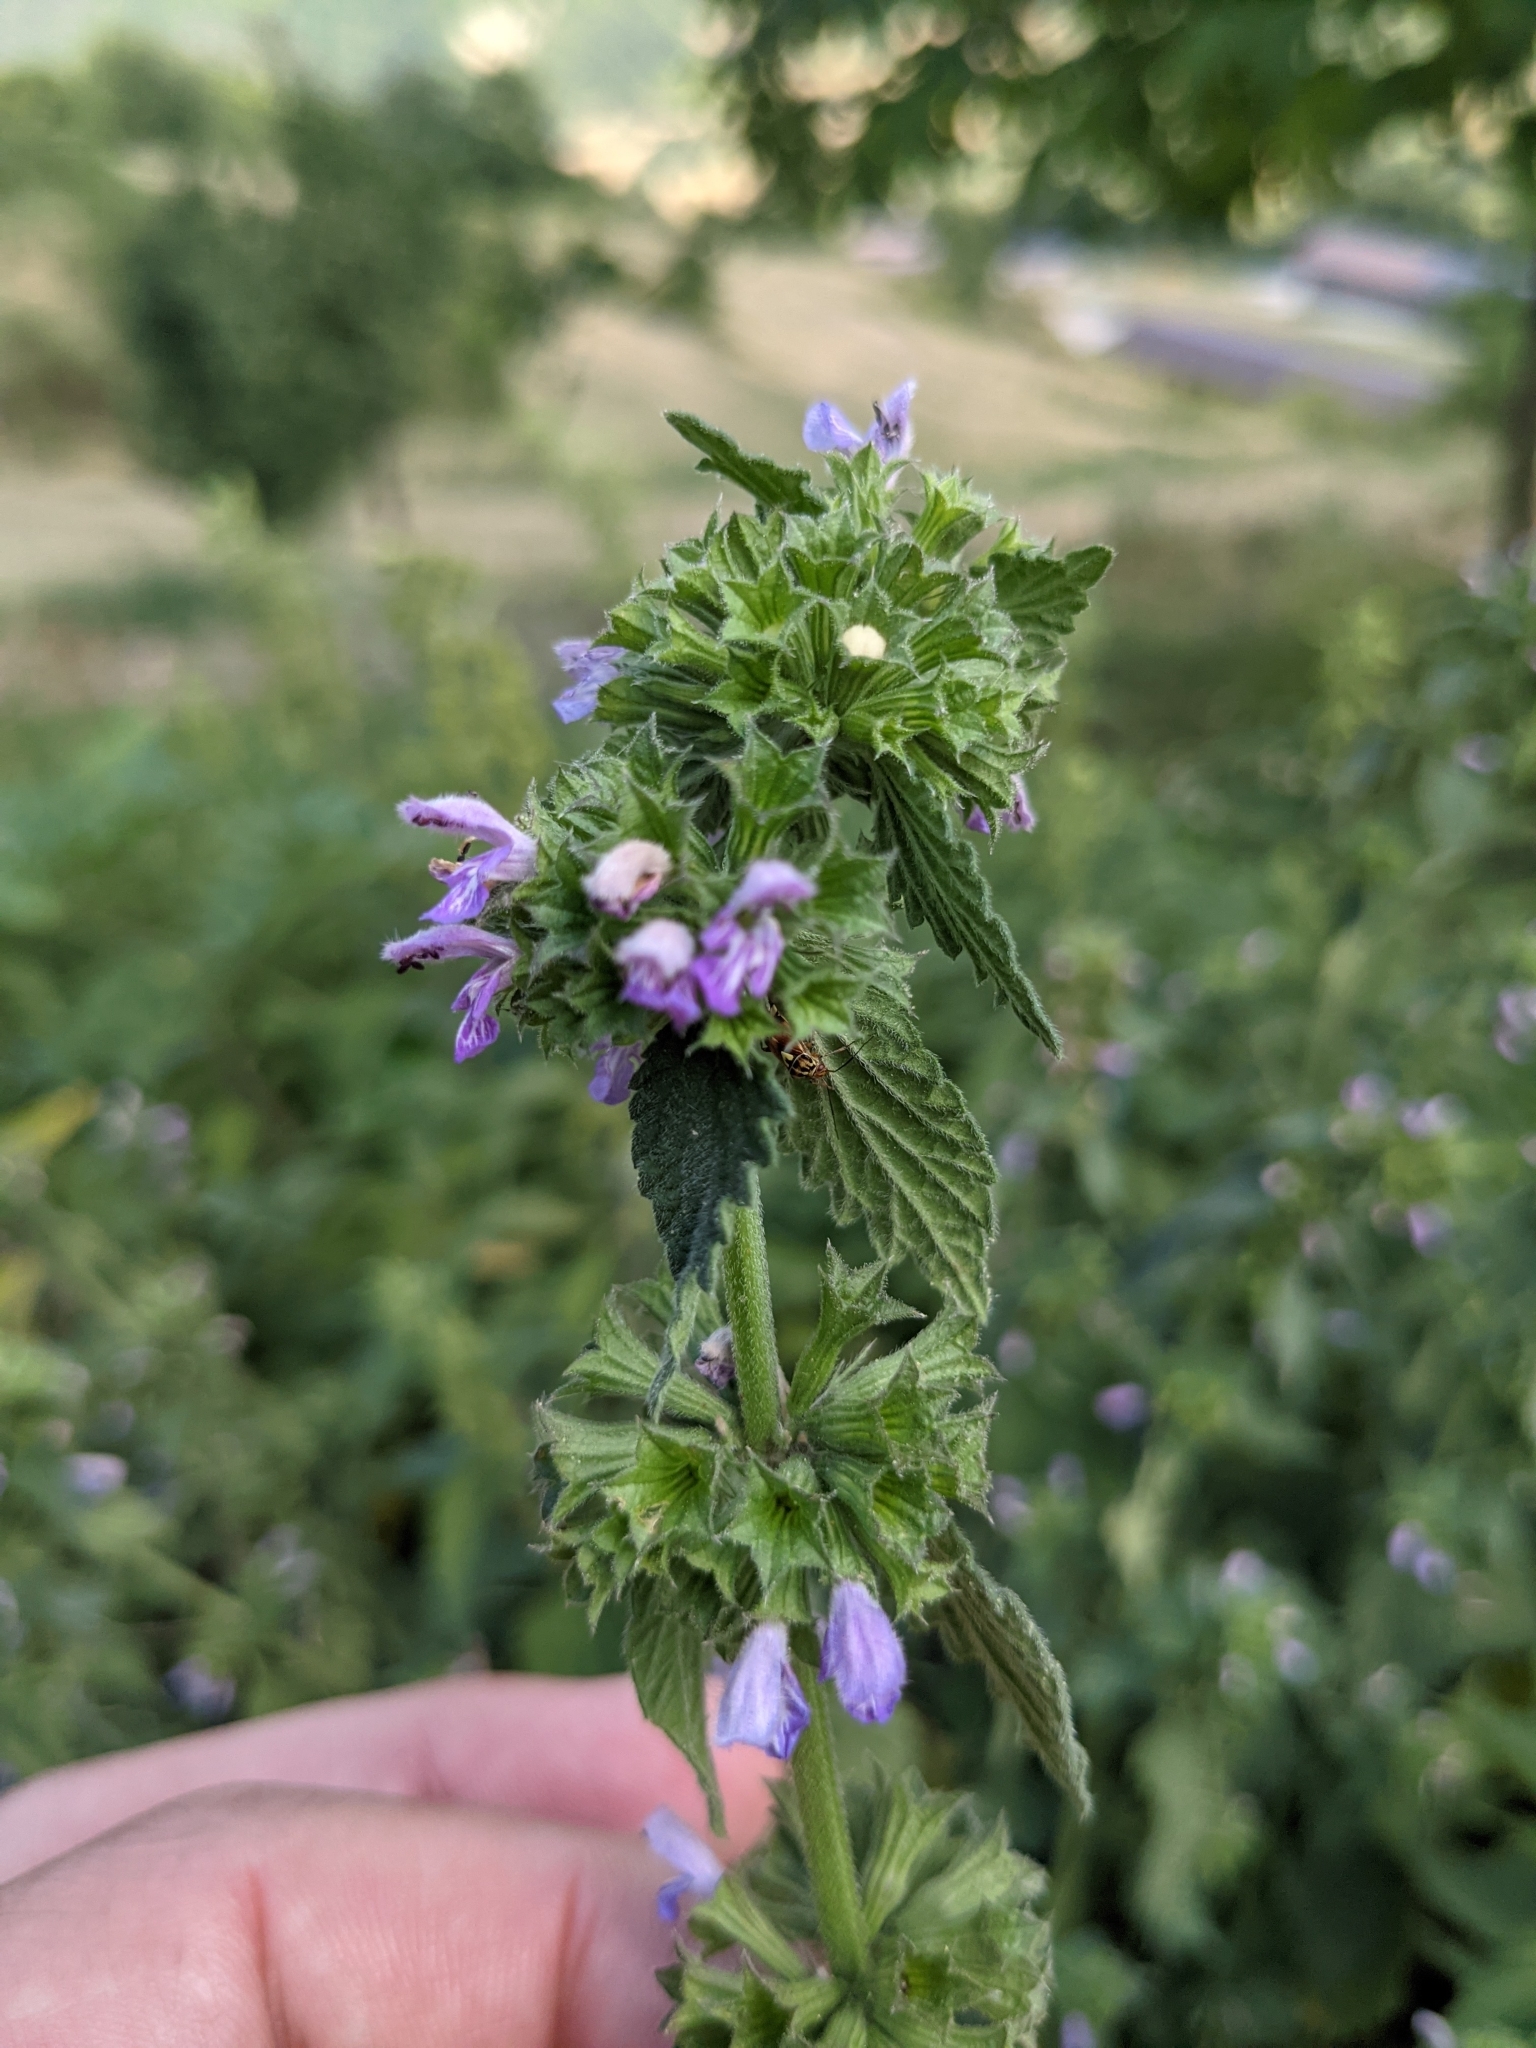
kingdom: Plantae
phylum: Tracheophyta
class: Magnoliopsida
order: Lamiales
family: Lamiaceae
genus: Ballota
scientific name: Ballota nigra
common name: Black horehound
